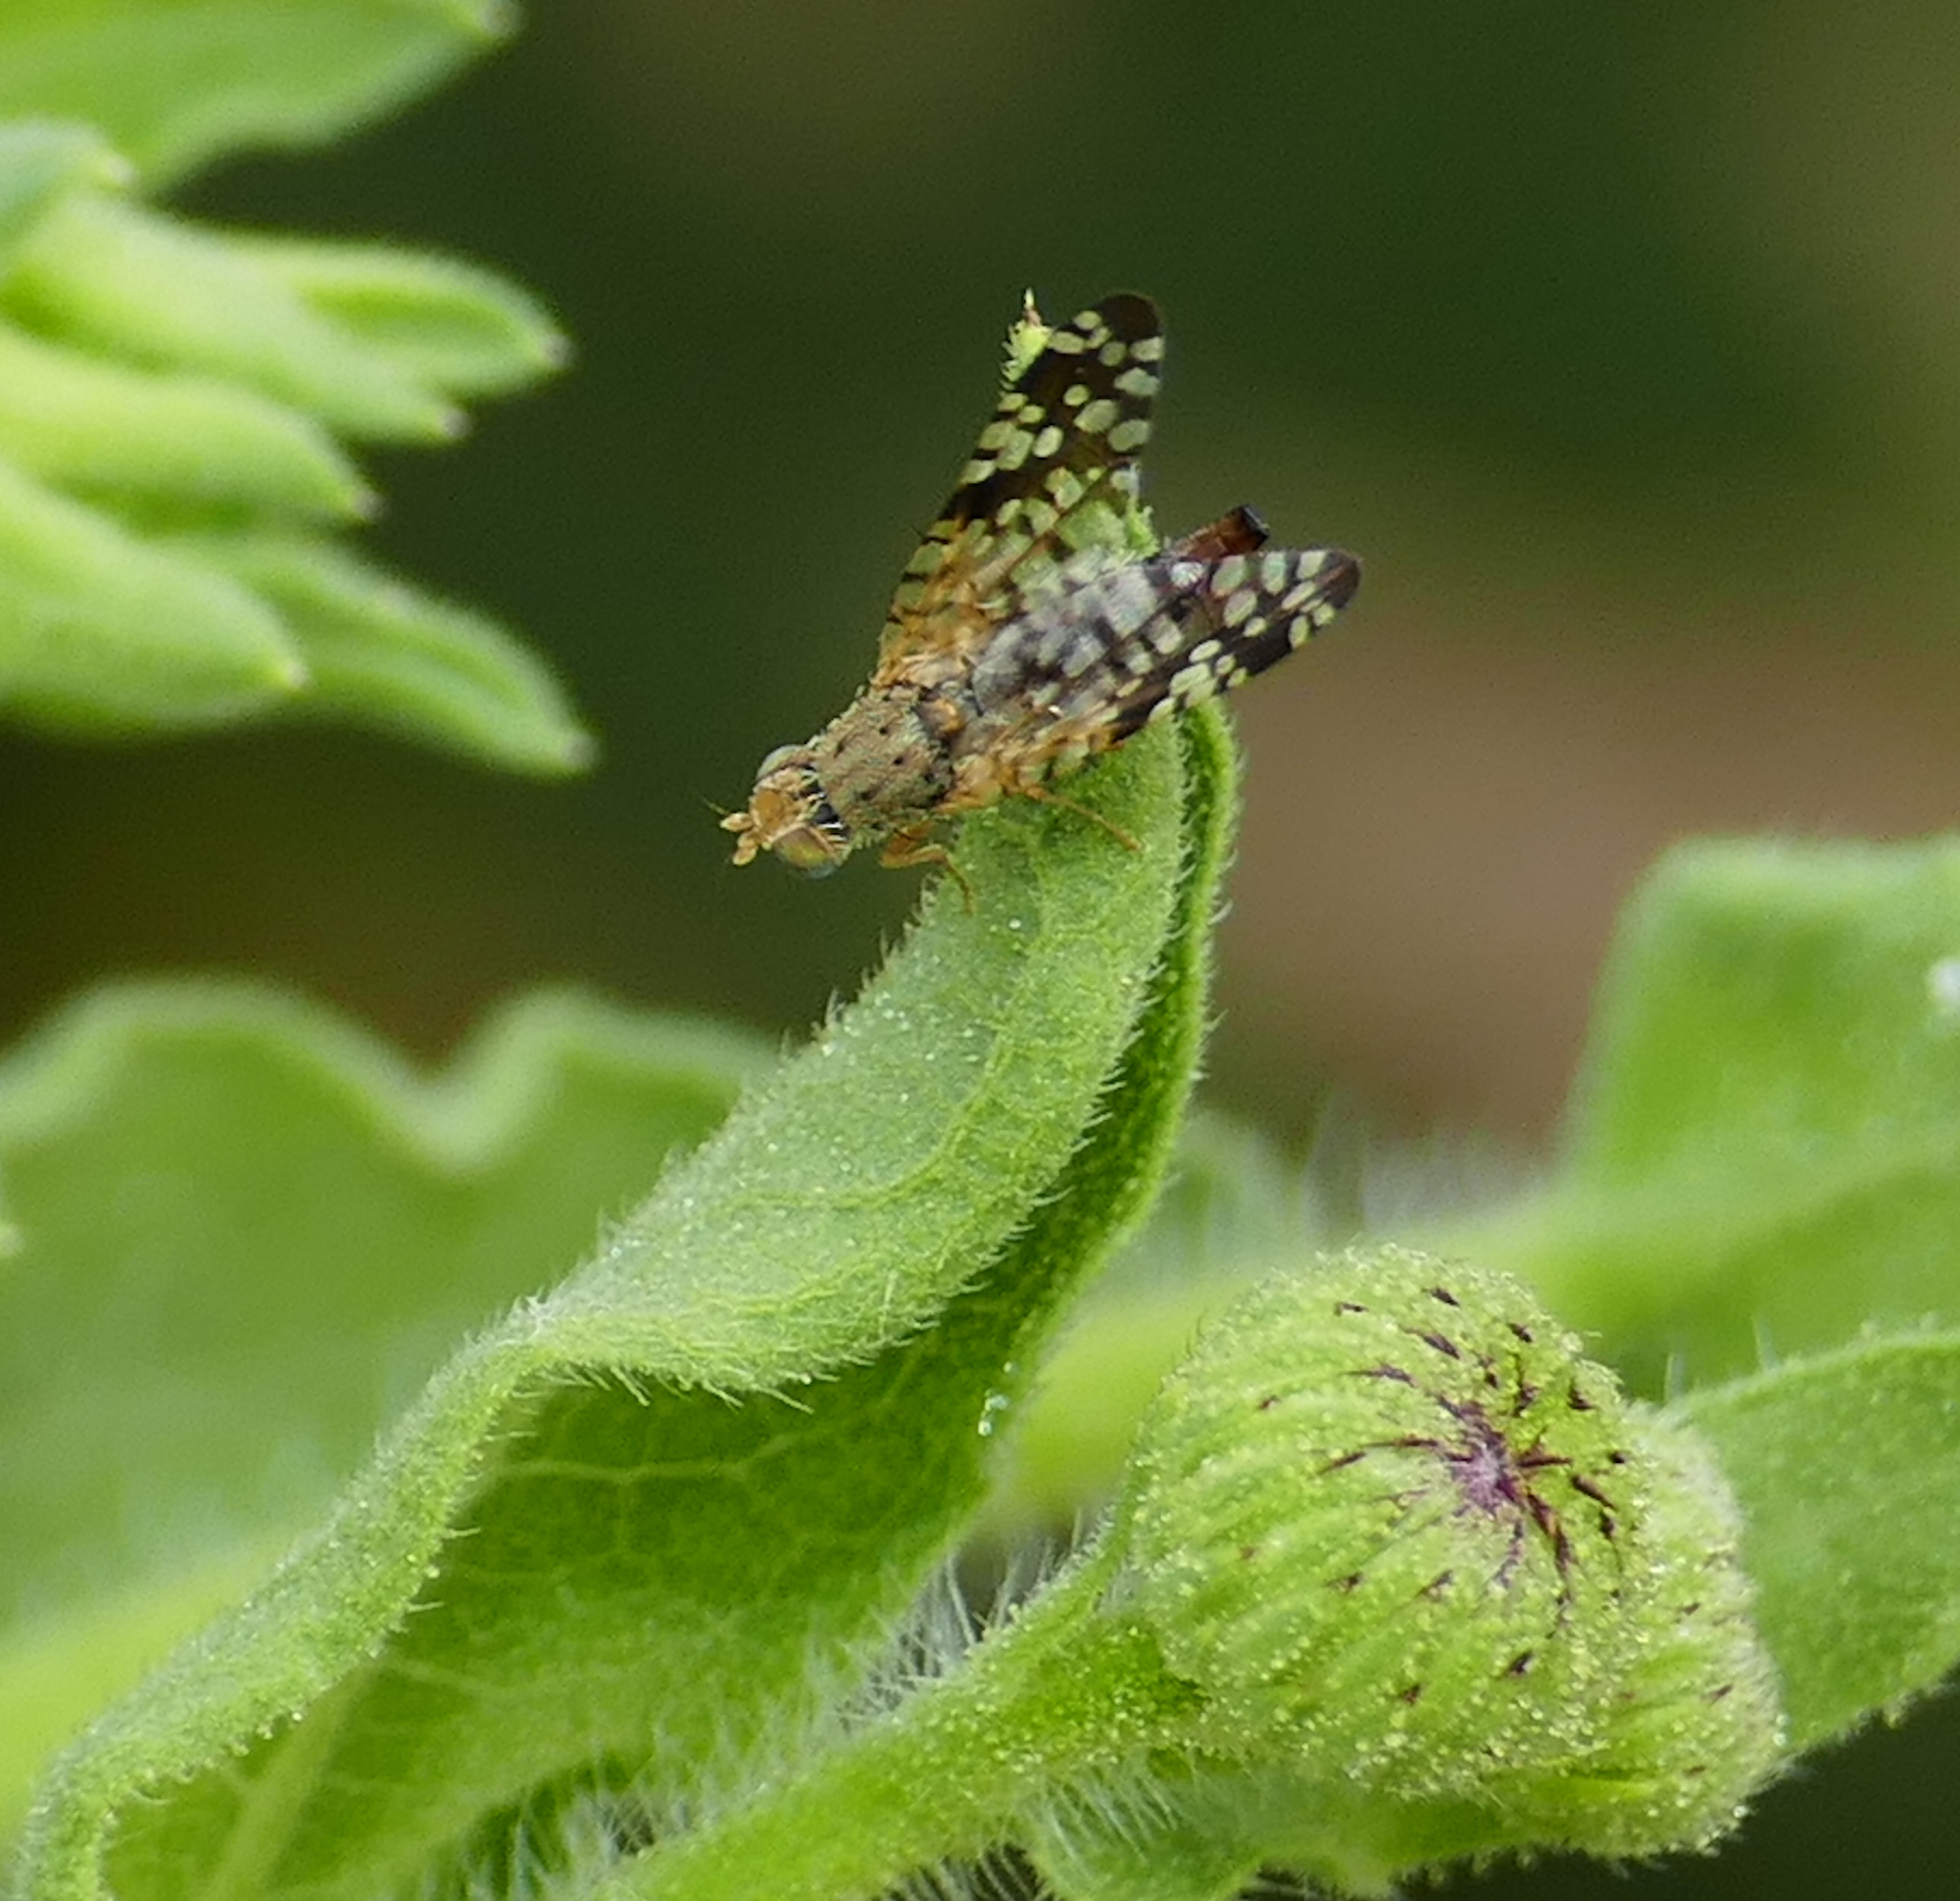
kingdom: Animalia
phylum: Arthropoda
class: Insecta
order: Diptera
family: Tephritidae
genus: Neotephritis
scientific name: Neotephritis finalis
